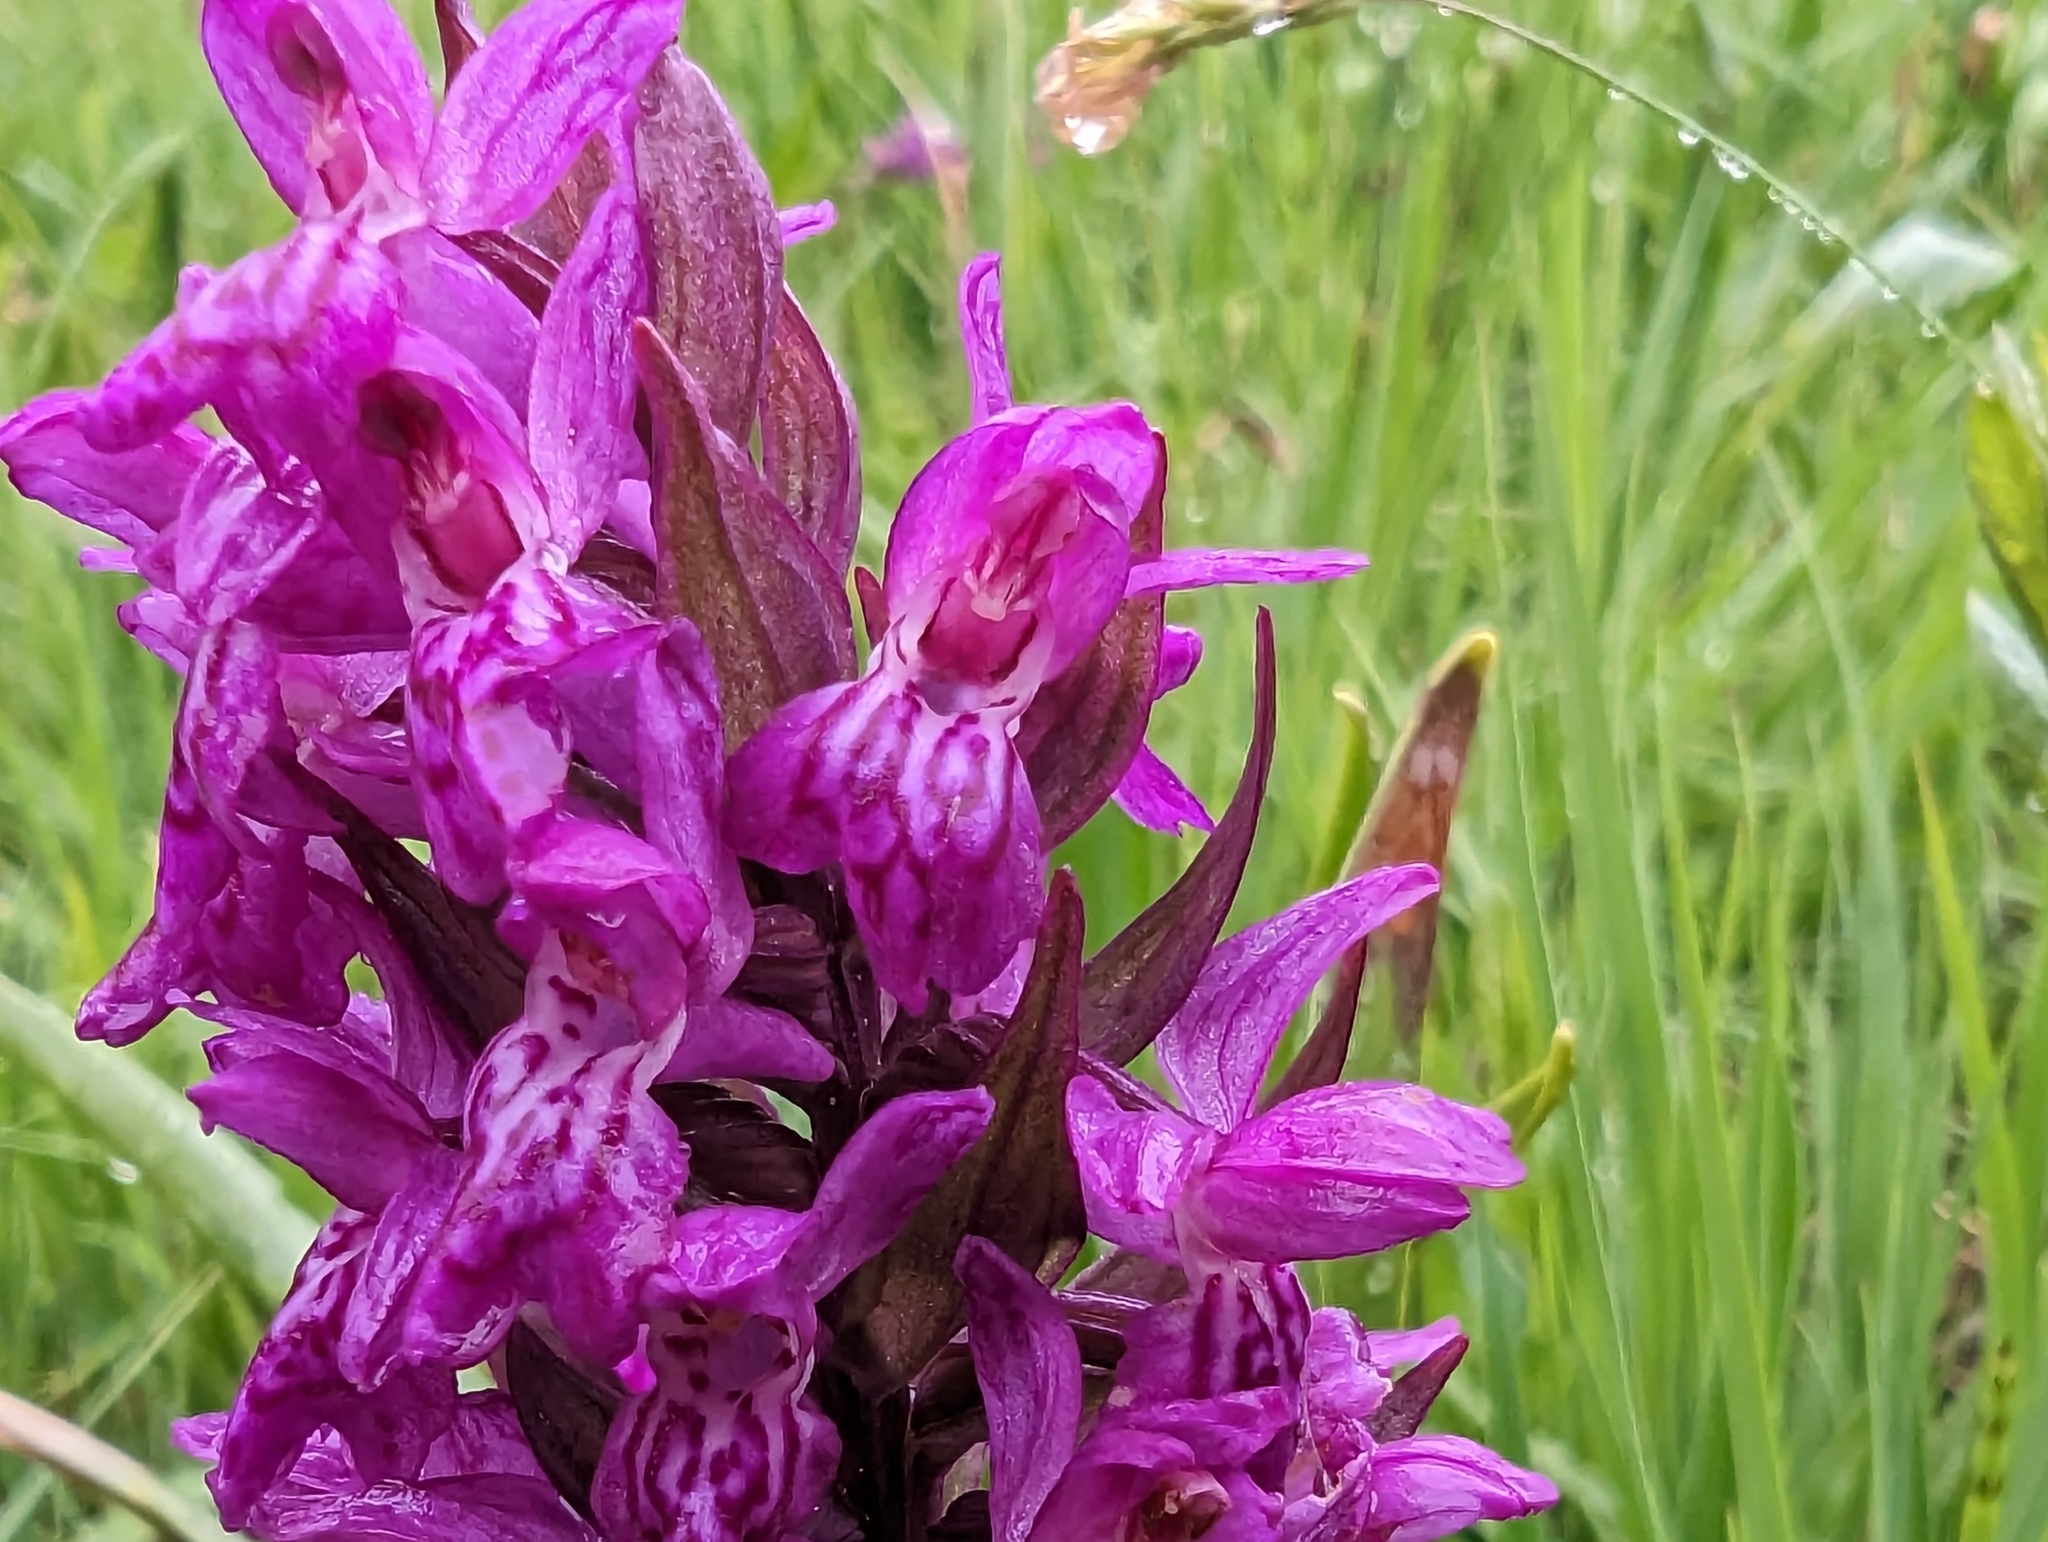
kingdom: Plantae
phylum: Tracheophyta
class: Liliopsida
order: Asparagales
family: Orchidaceae
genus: Dactylorhiza
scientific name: Dactylorhiza majalis
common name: Marsh orchid
